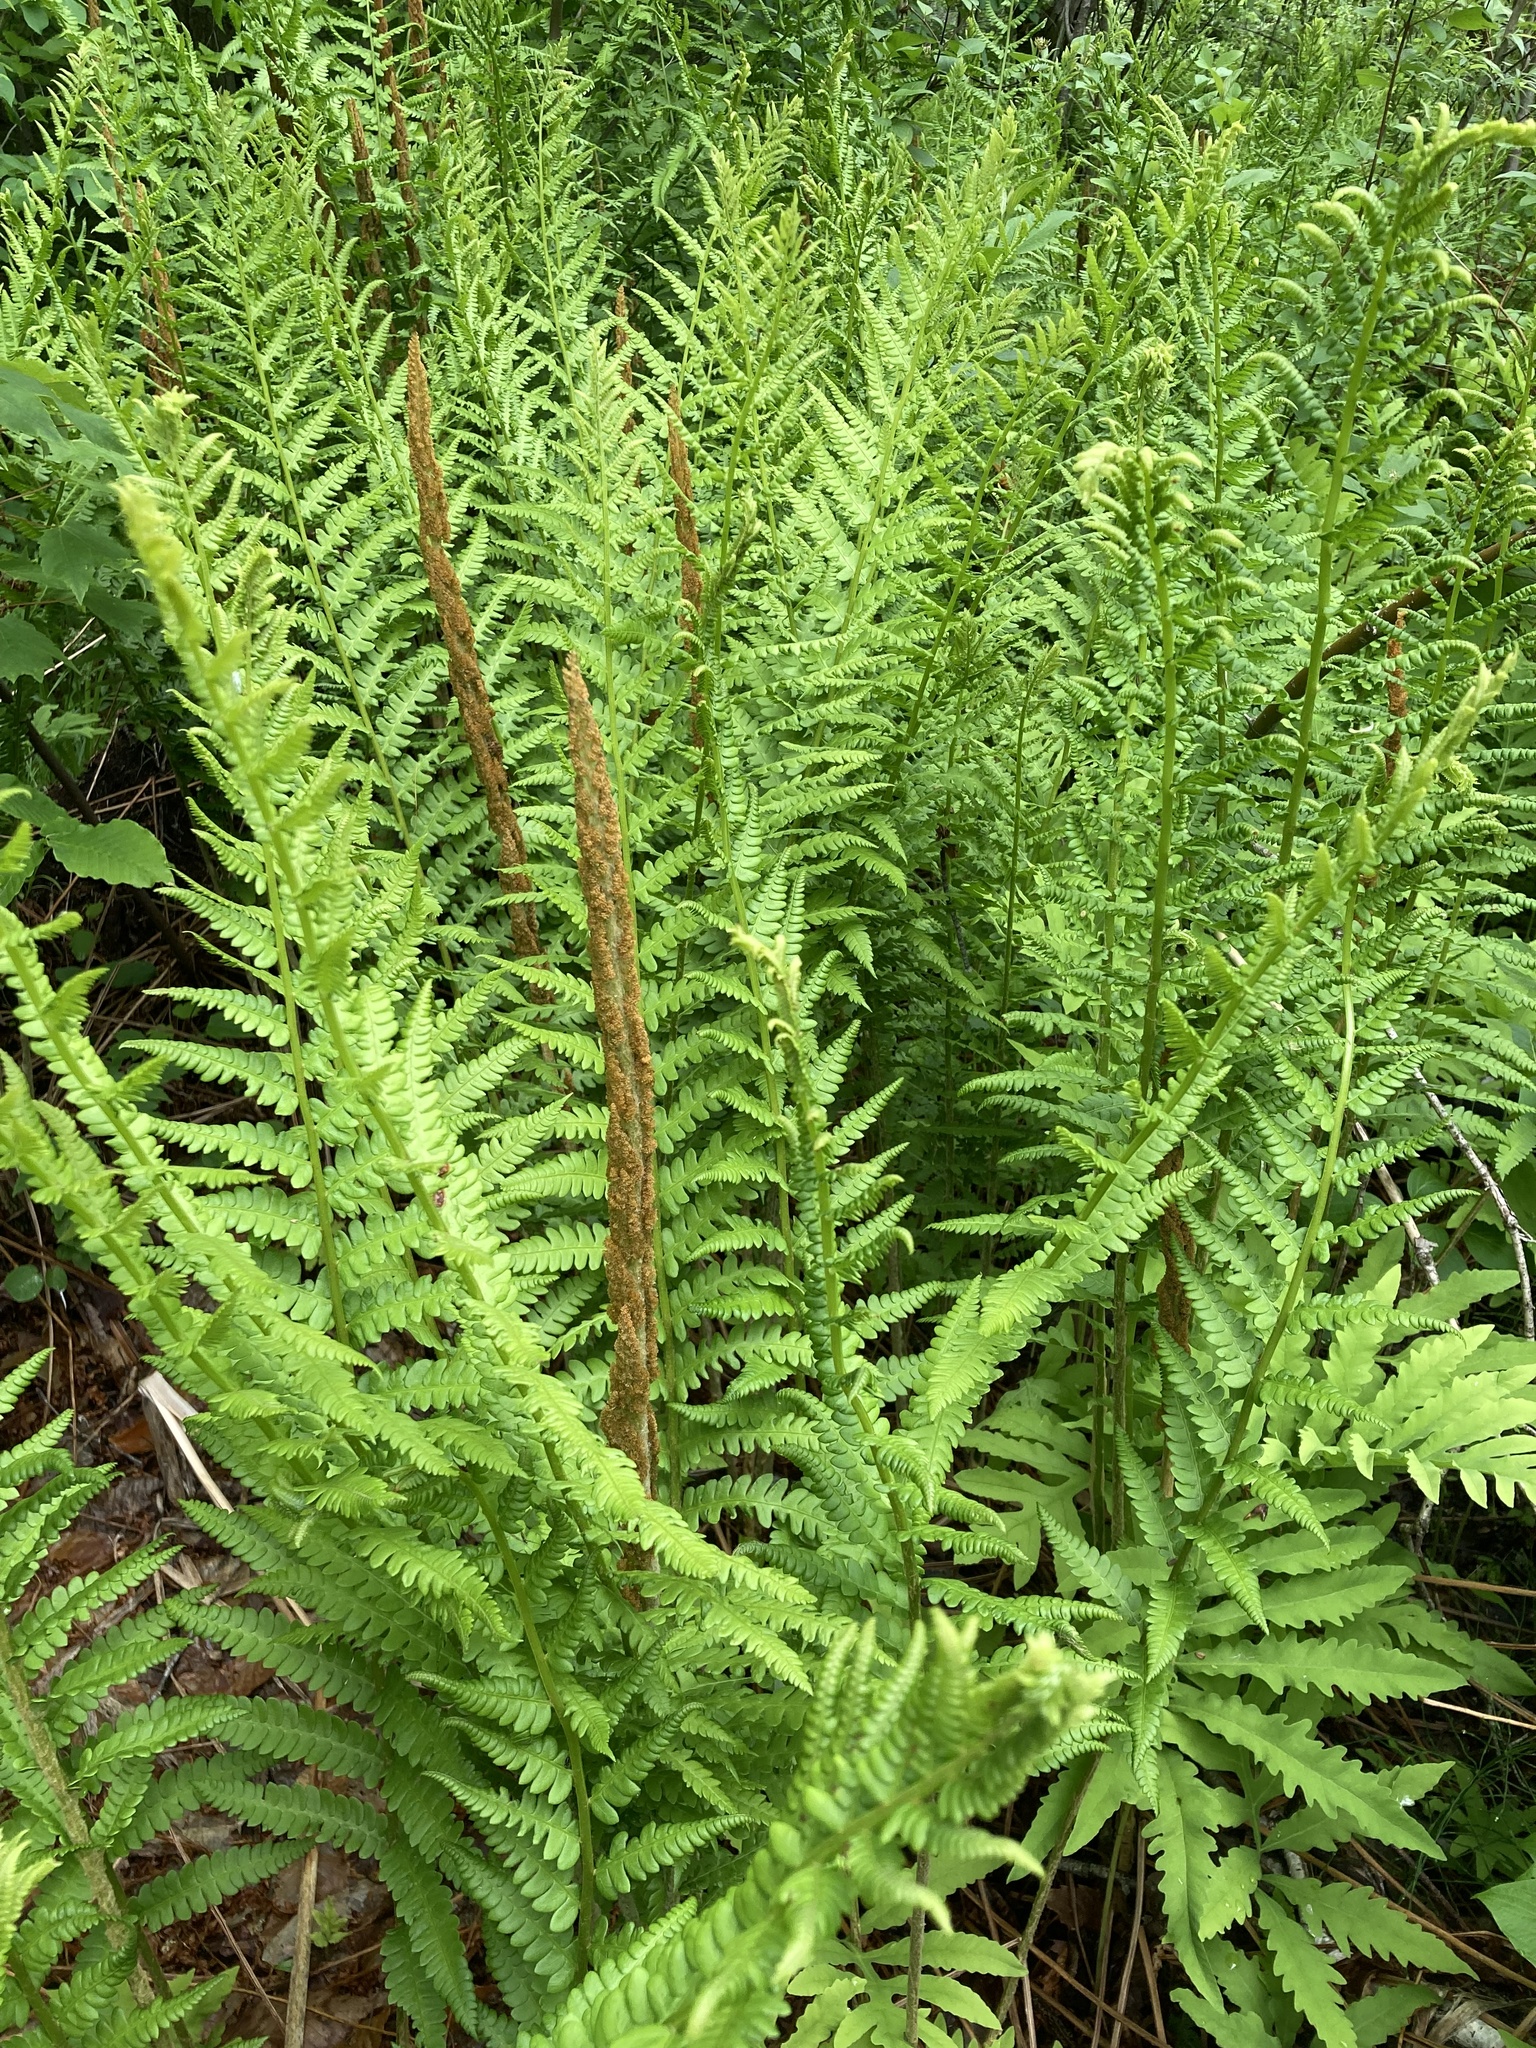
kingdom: Plantae
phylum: Tracheophyta
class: Polypodiopsida
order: Osmundales
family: Osmundaceae
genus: Osmundastrum
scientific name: Osmundastrum cinnamomeum
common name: Cinnamon fern
